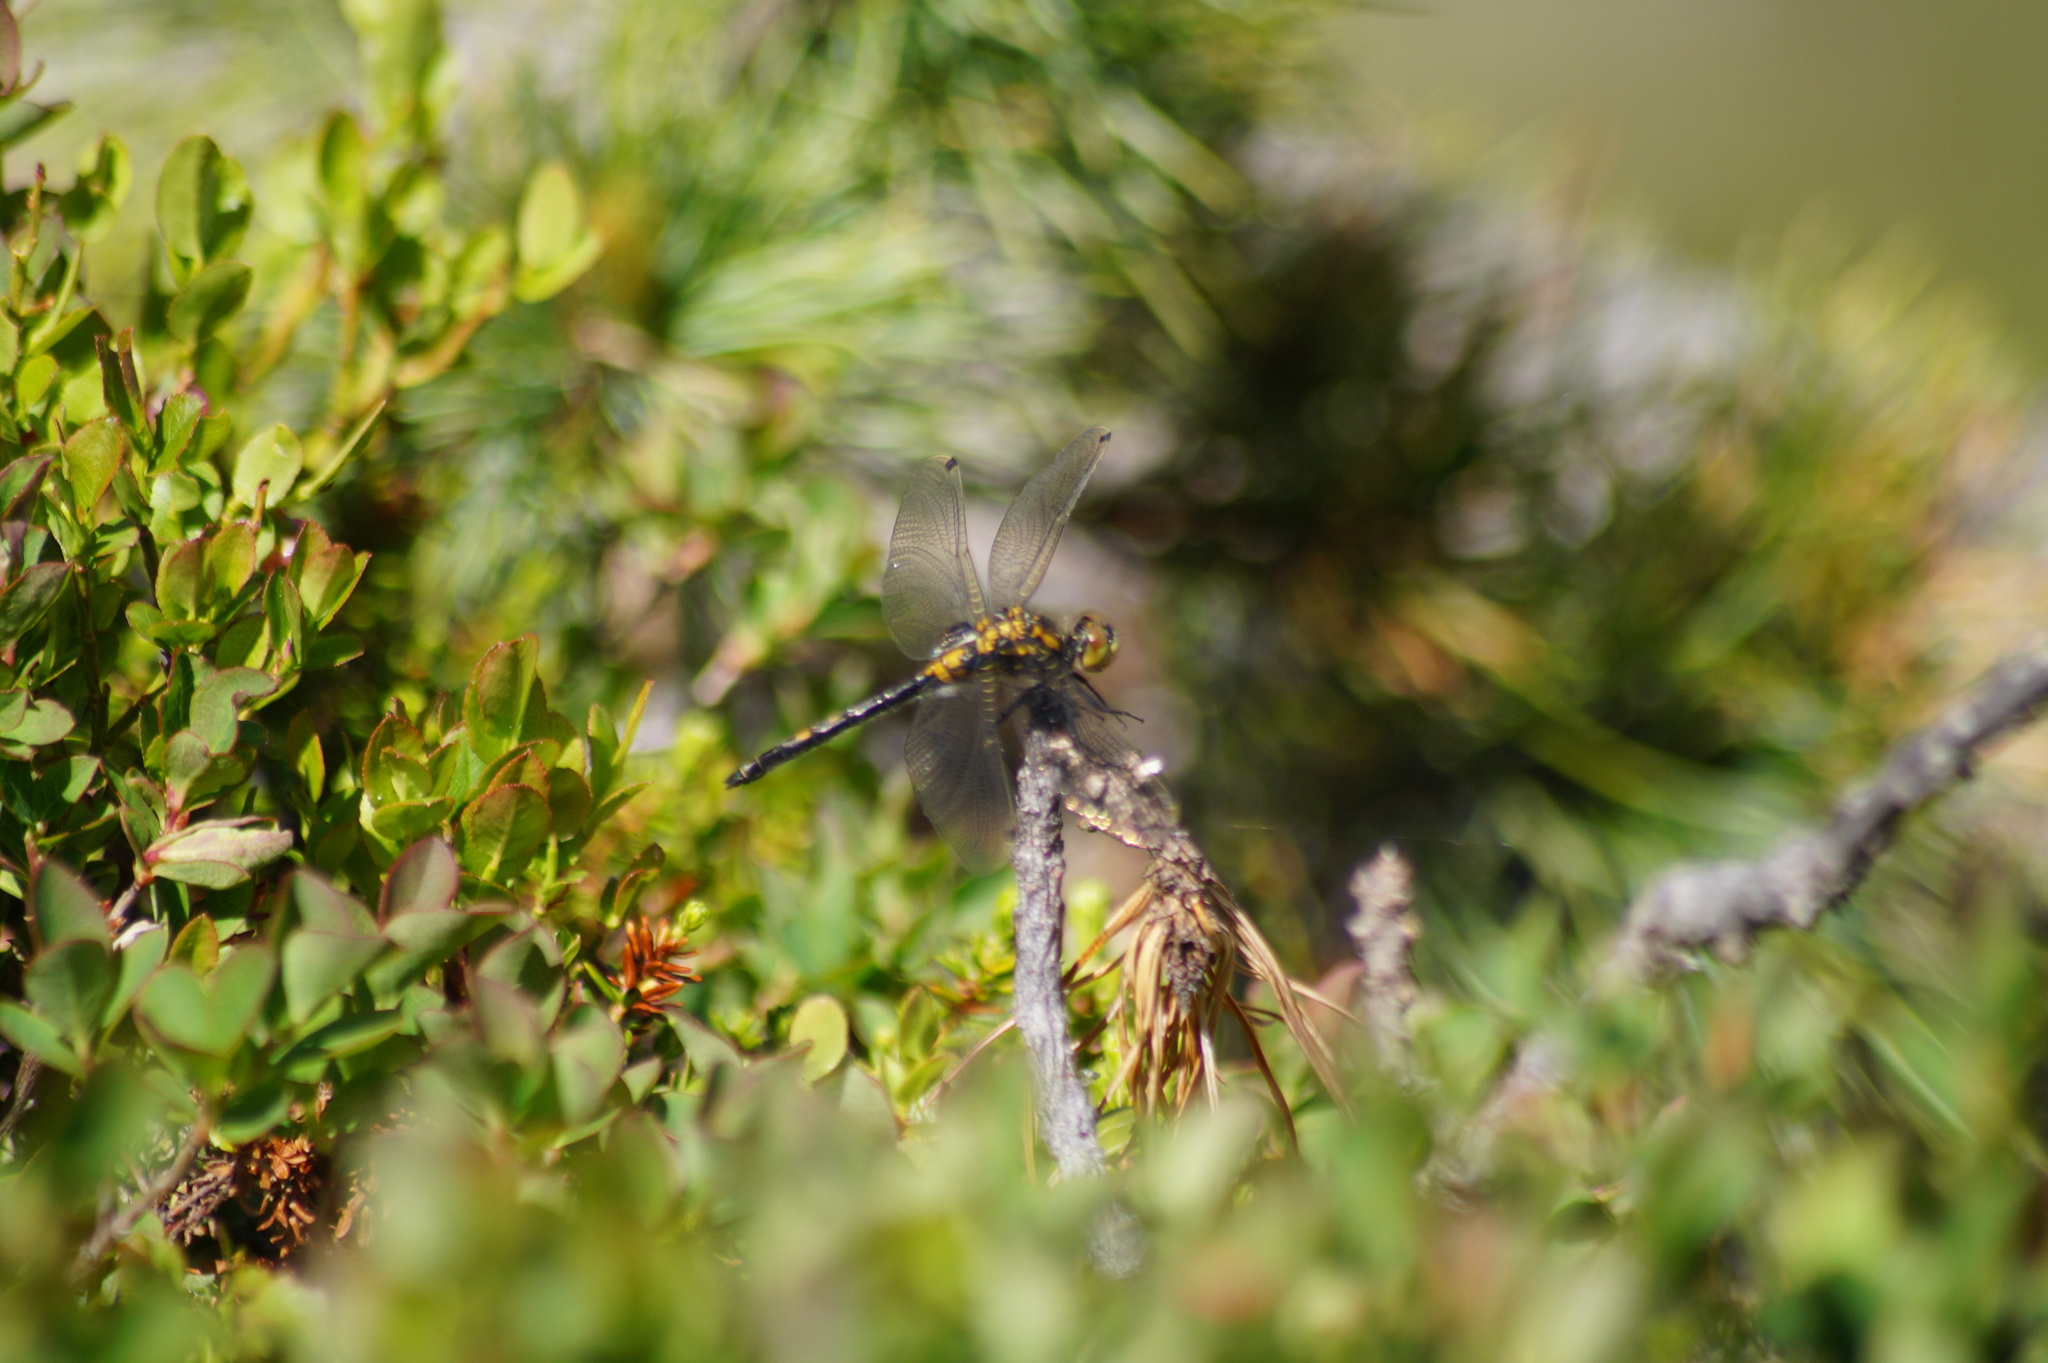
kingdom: Animalia
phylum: Arthropoda
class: Insecta
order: Odonata
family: Libellulidae
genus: Leucorrhinia
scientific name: Leucorrhinia dubia
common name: White-faced darter
